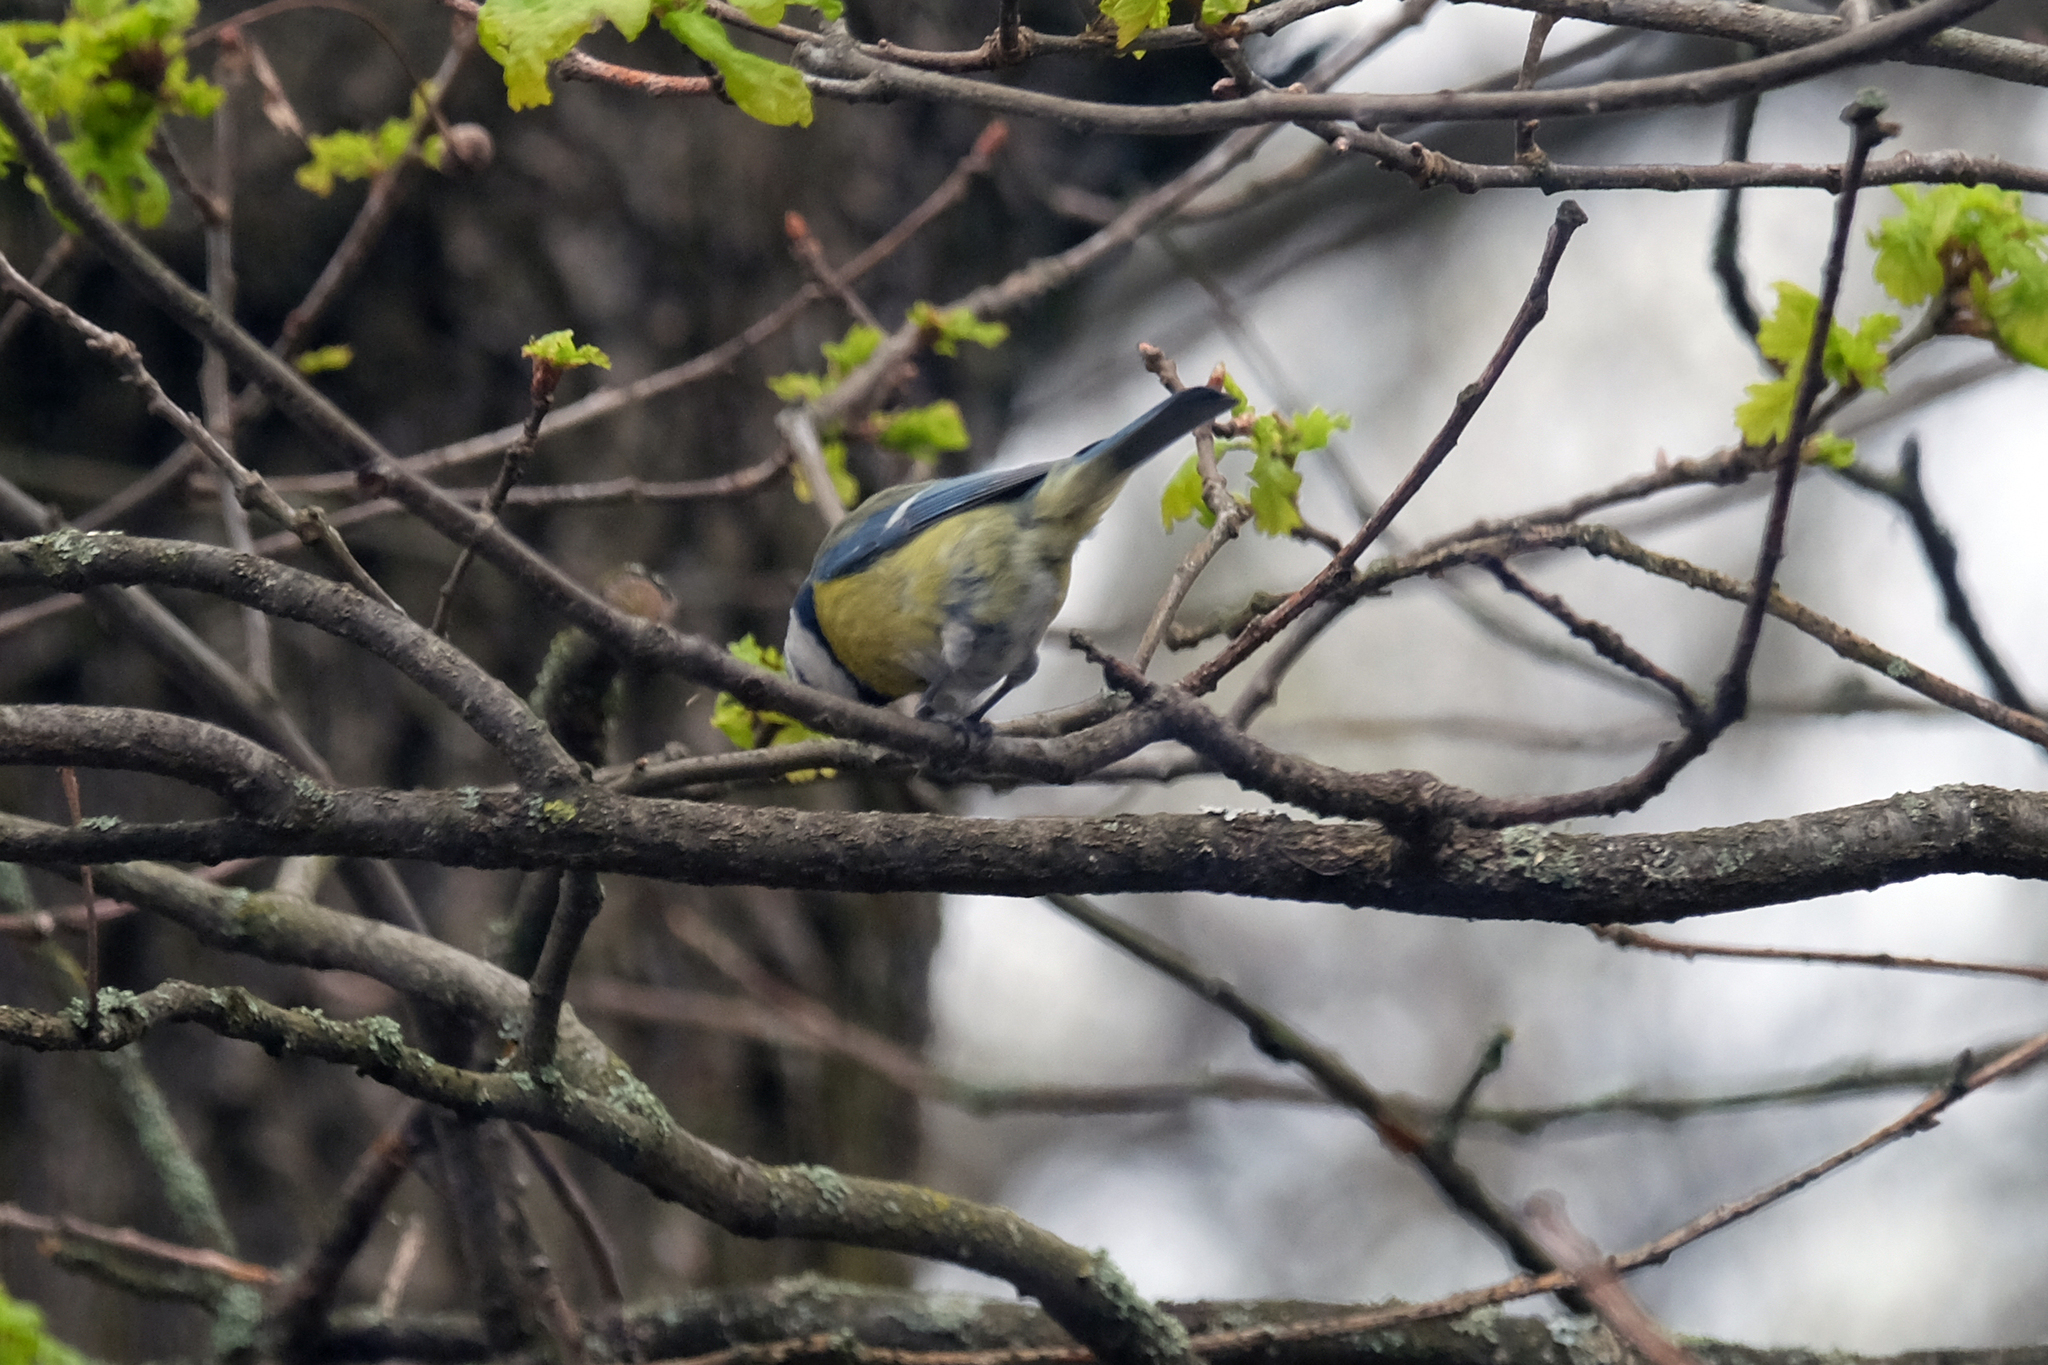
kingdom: Animalia
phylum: Chordata
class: Aves
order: Passeriformes
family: Paridae
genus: Cyanistes
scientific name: Cyanistes caeruleus
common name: Eurasian blue tit
